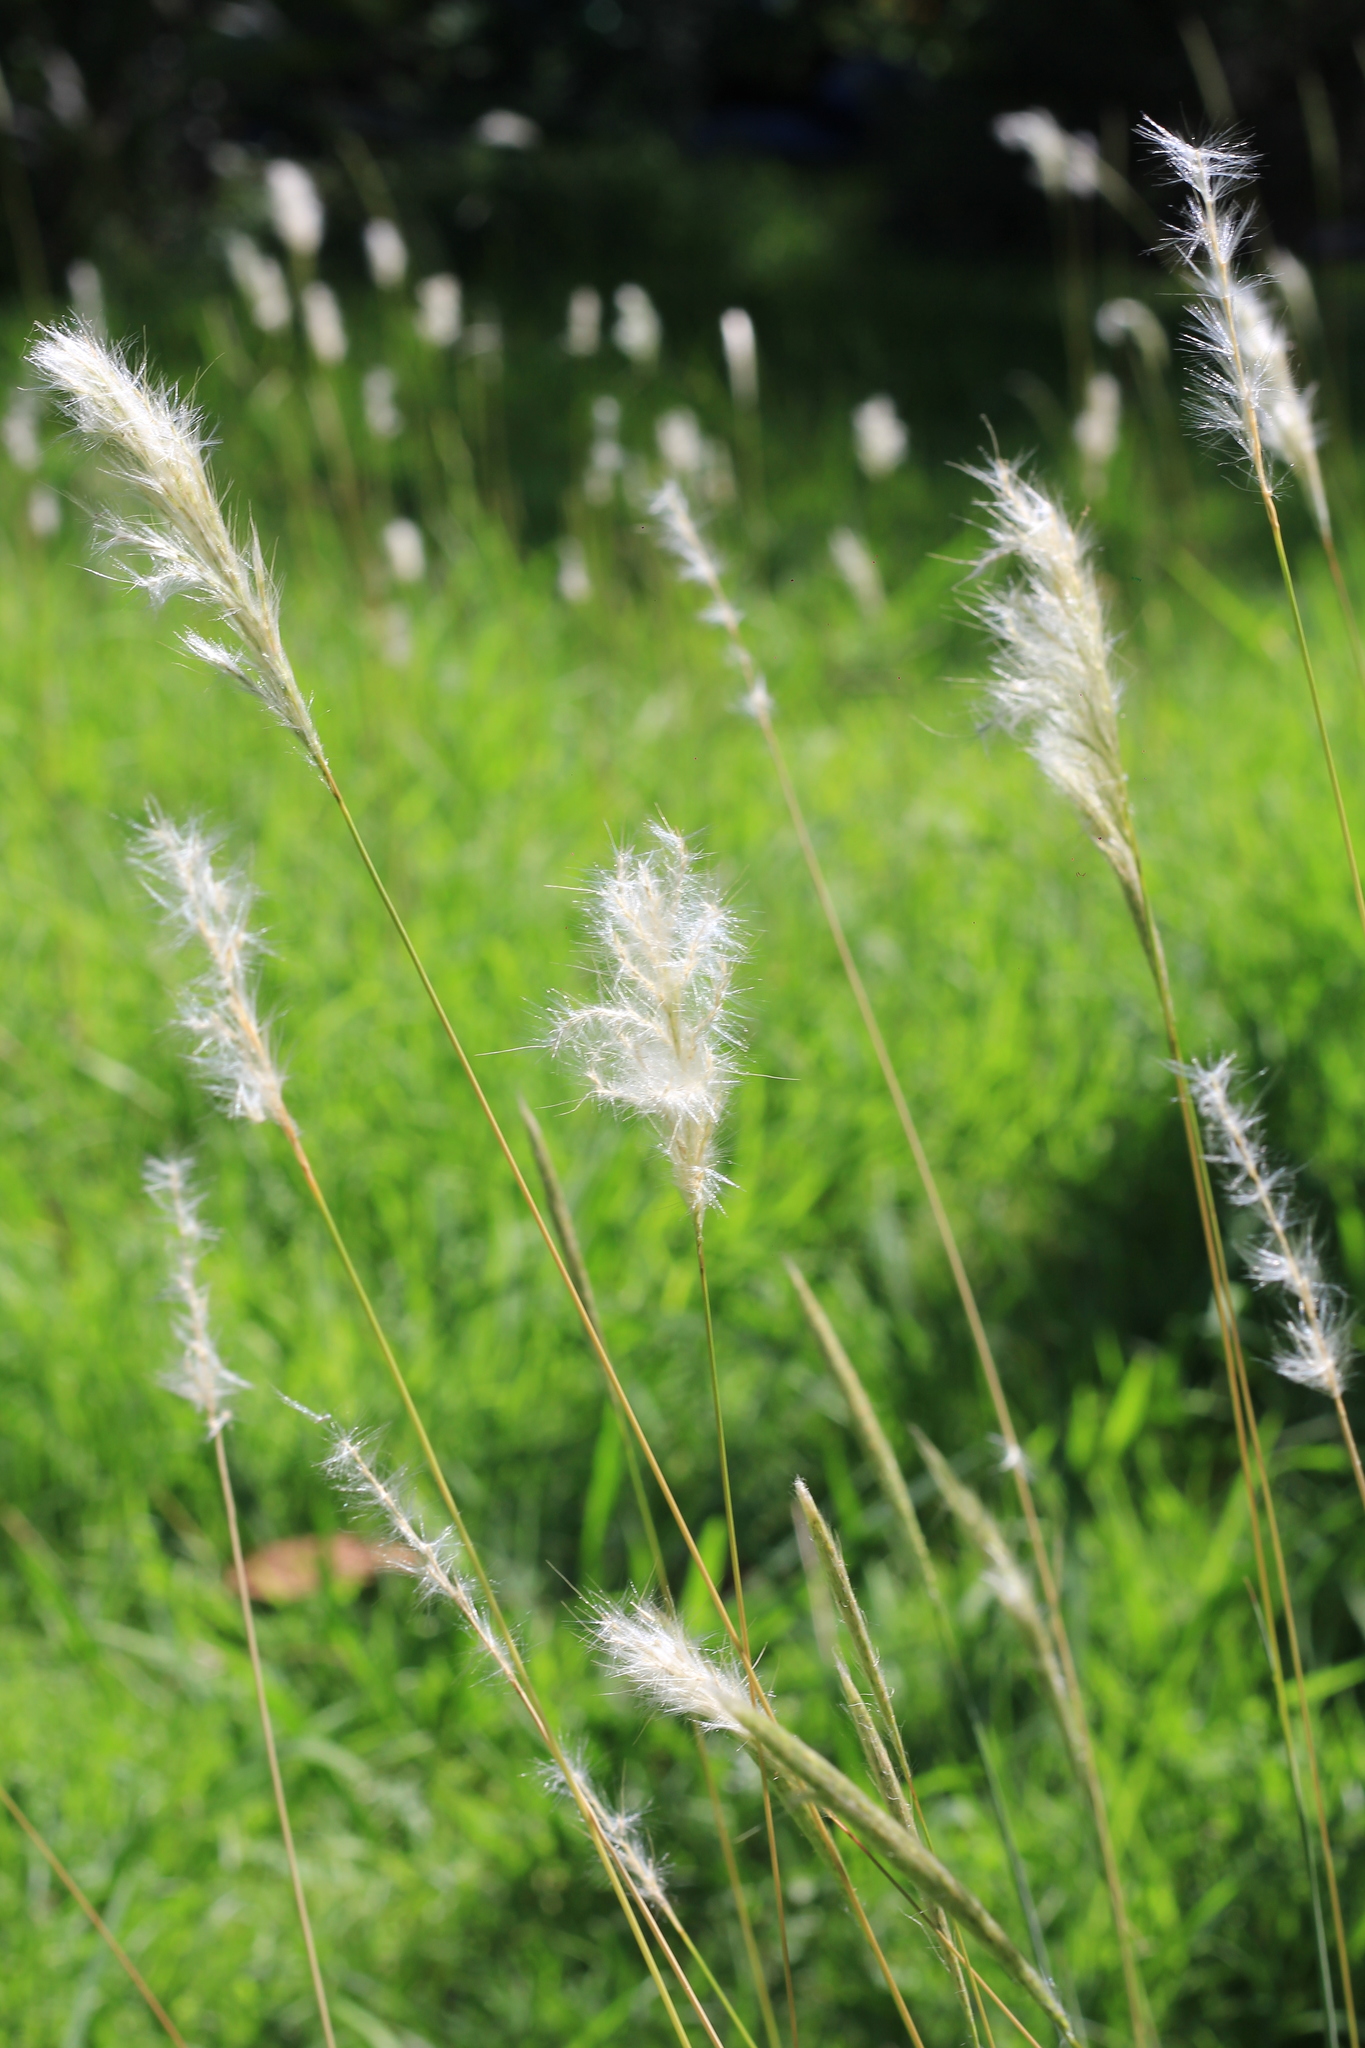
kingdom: Plantae
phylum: Tracheophyta
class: Liliopsida
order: Poales
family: Poaceae
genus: Bothriochloa
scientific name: Bothriochloa laguroides
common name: Silver bluestem
